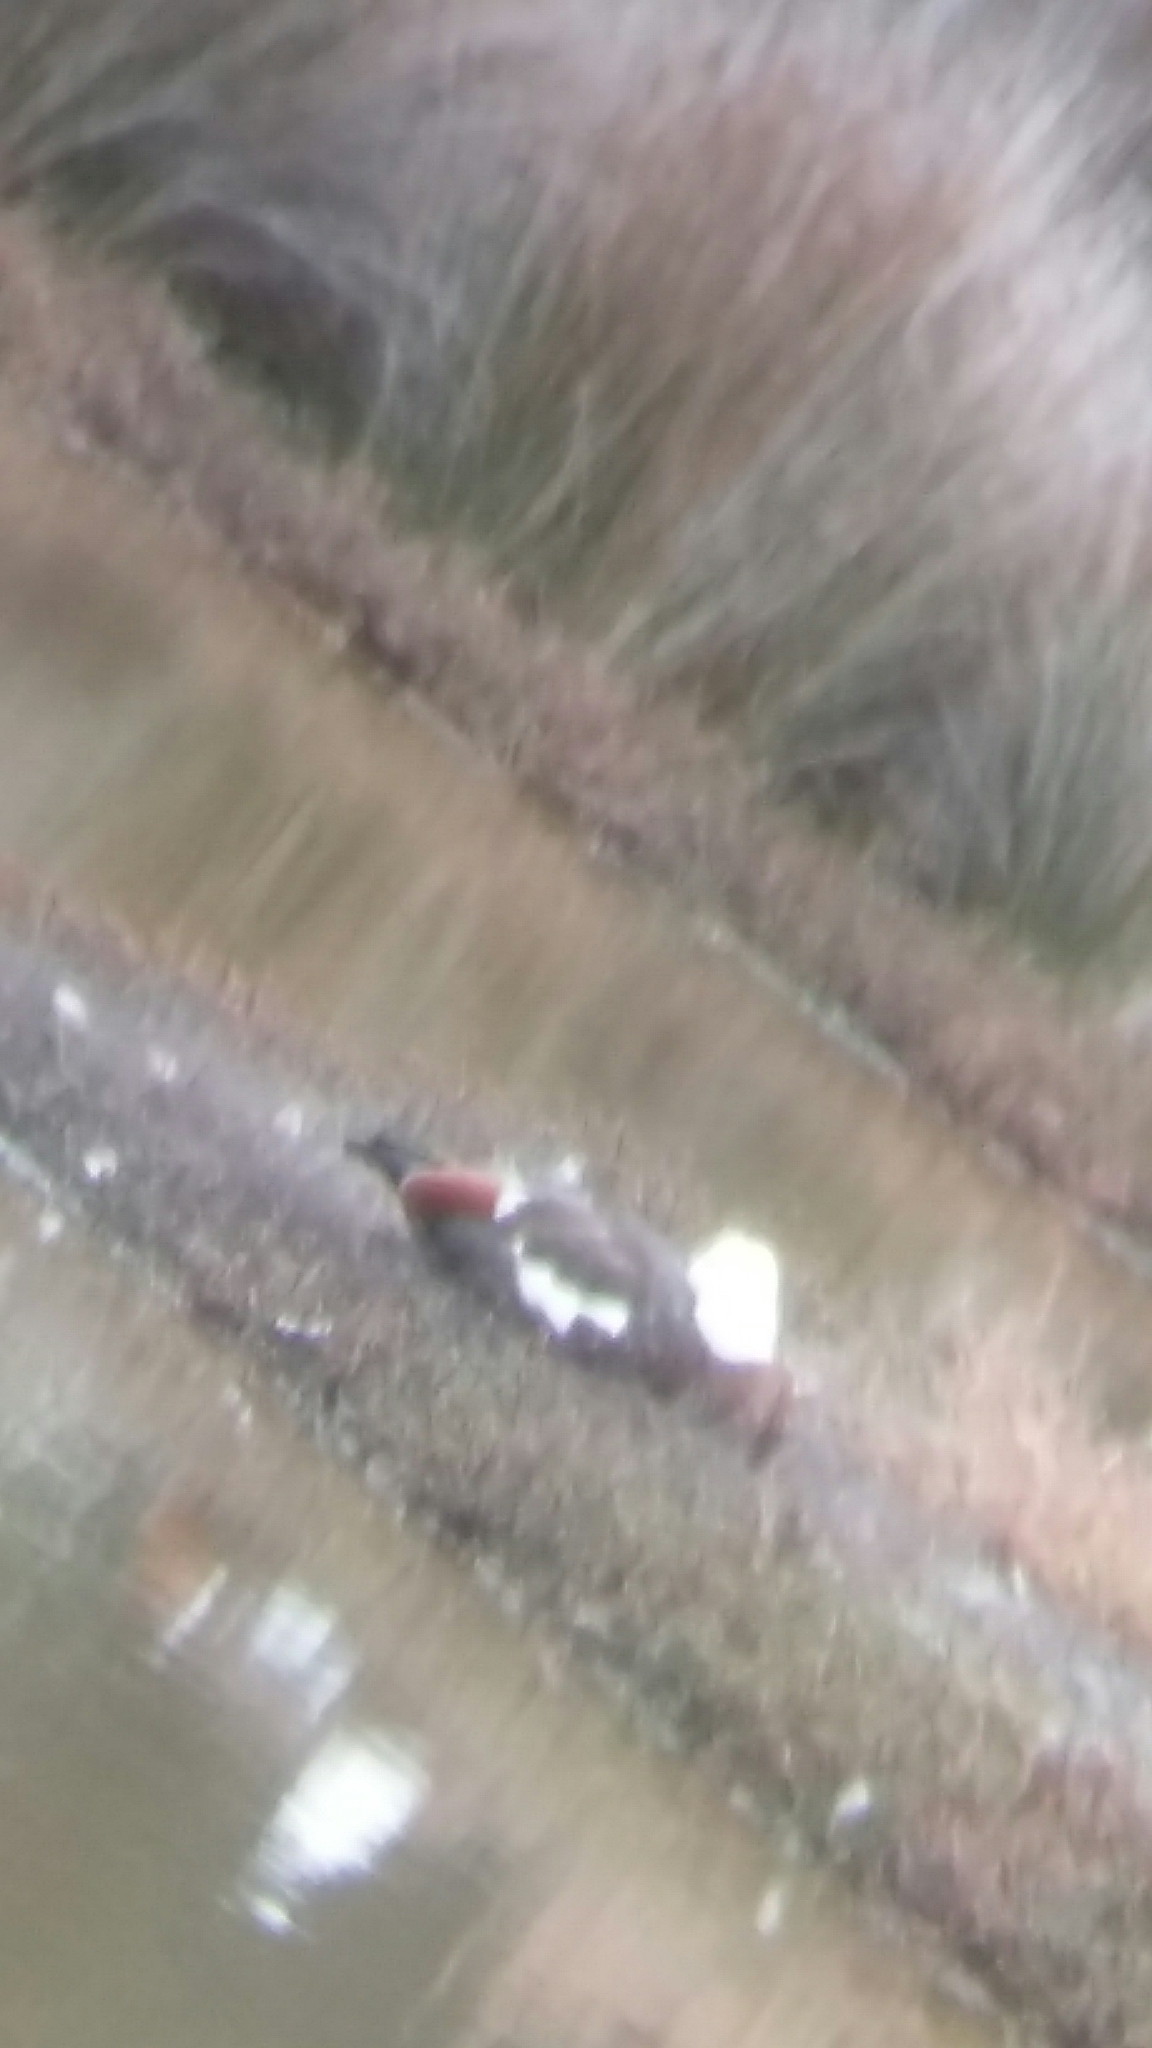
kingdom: Animalia
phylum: Chordata
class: Aves
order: Anseriformes
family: Anatidae
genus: Tadorna
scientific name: Tadorna variegata
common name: Paradise shelduck
